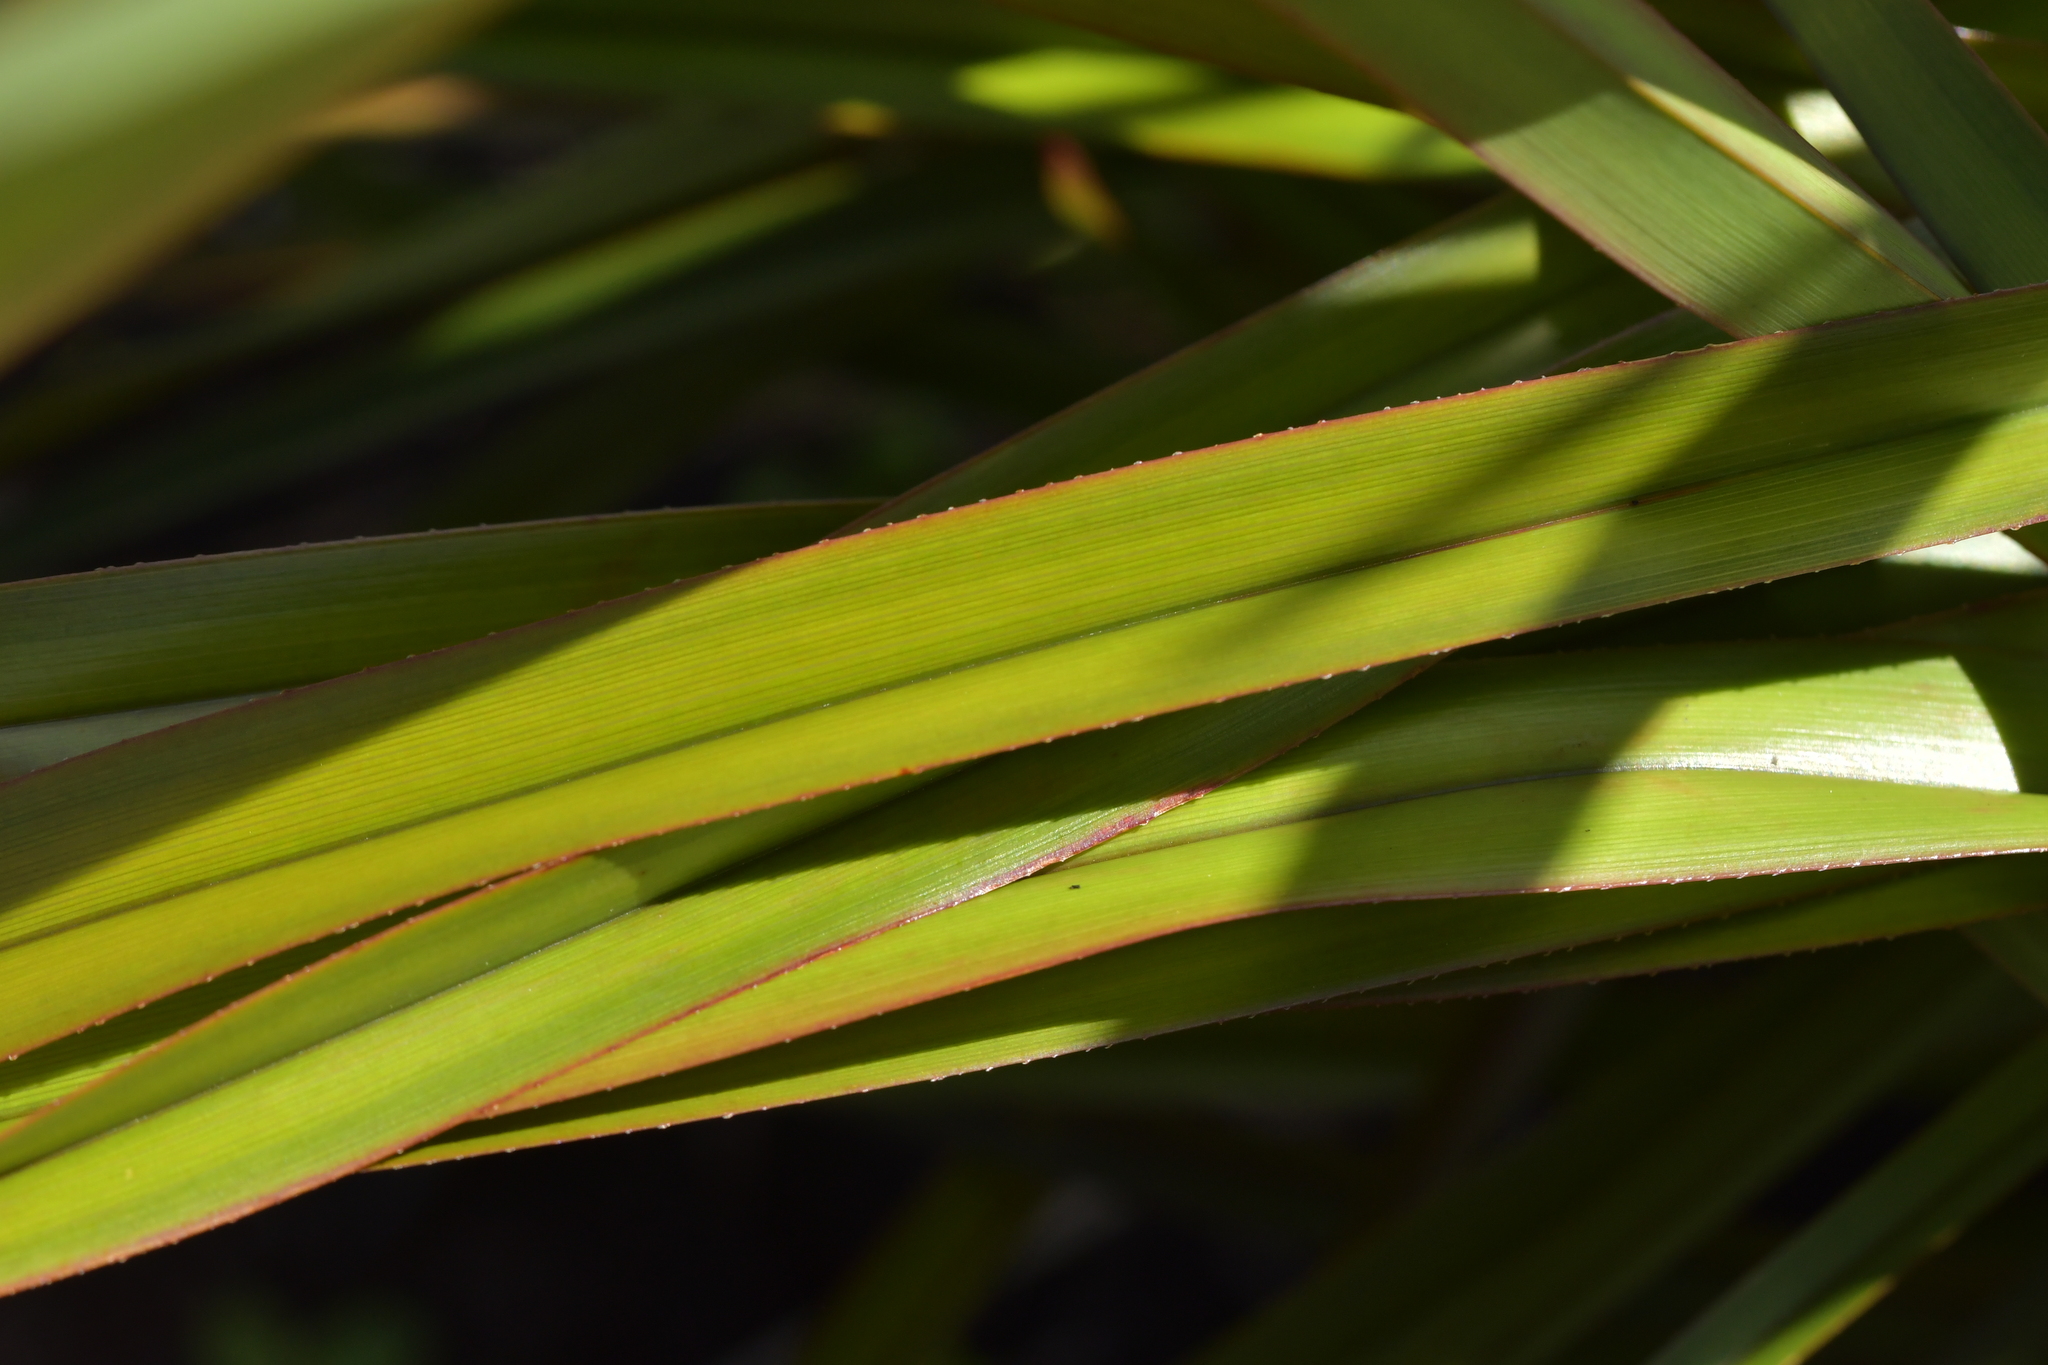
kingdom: Plantae
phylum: Tracheophyta
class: Liliopsida
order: Asparagales
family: Asphodelaceae
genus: Dianella
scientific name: Dianella haematica
